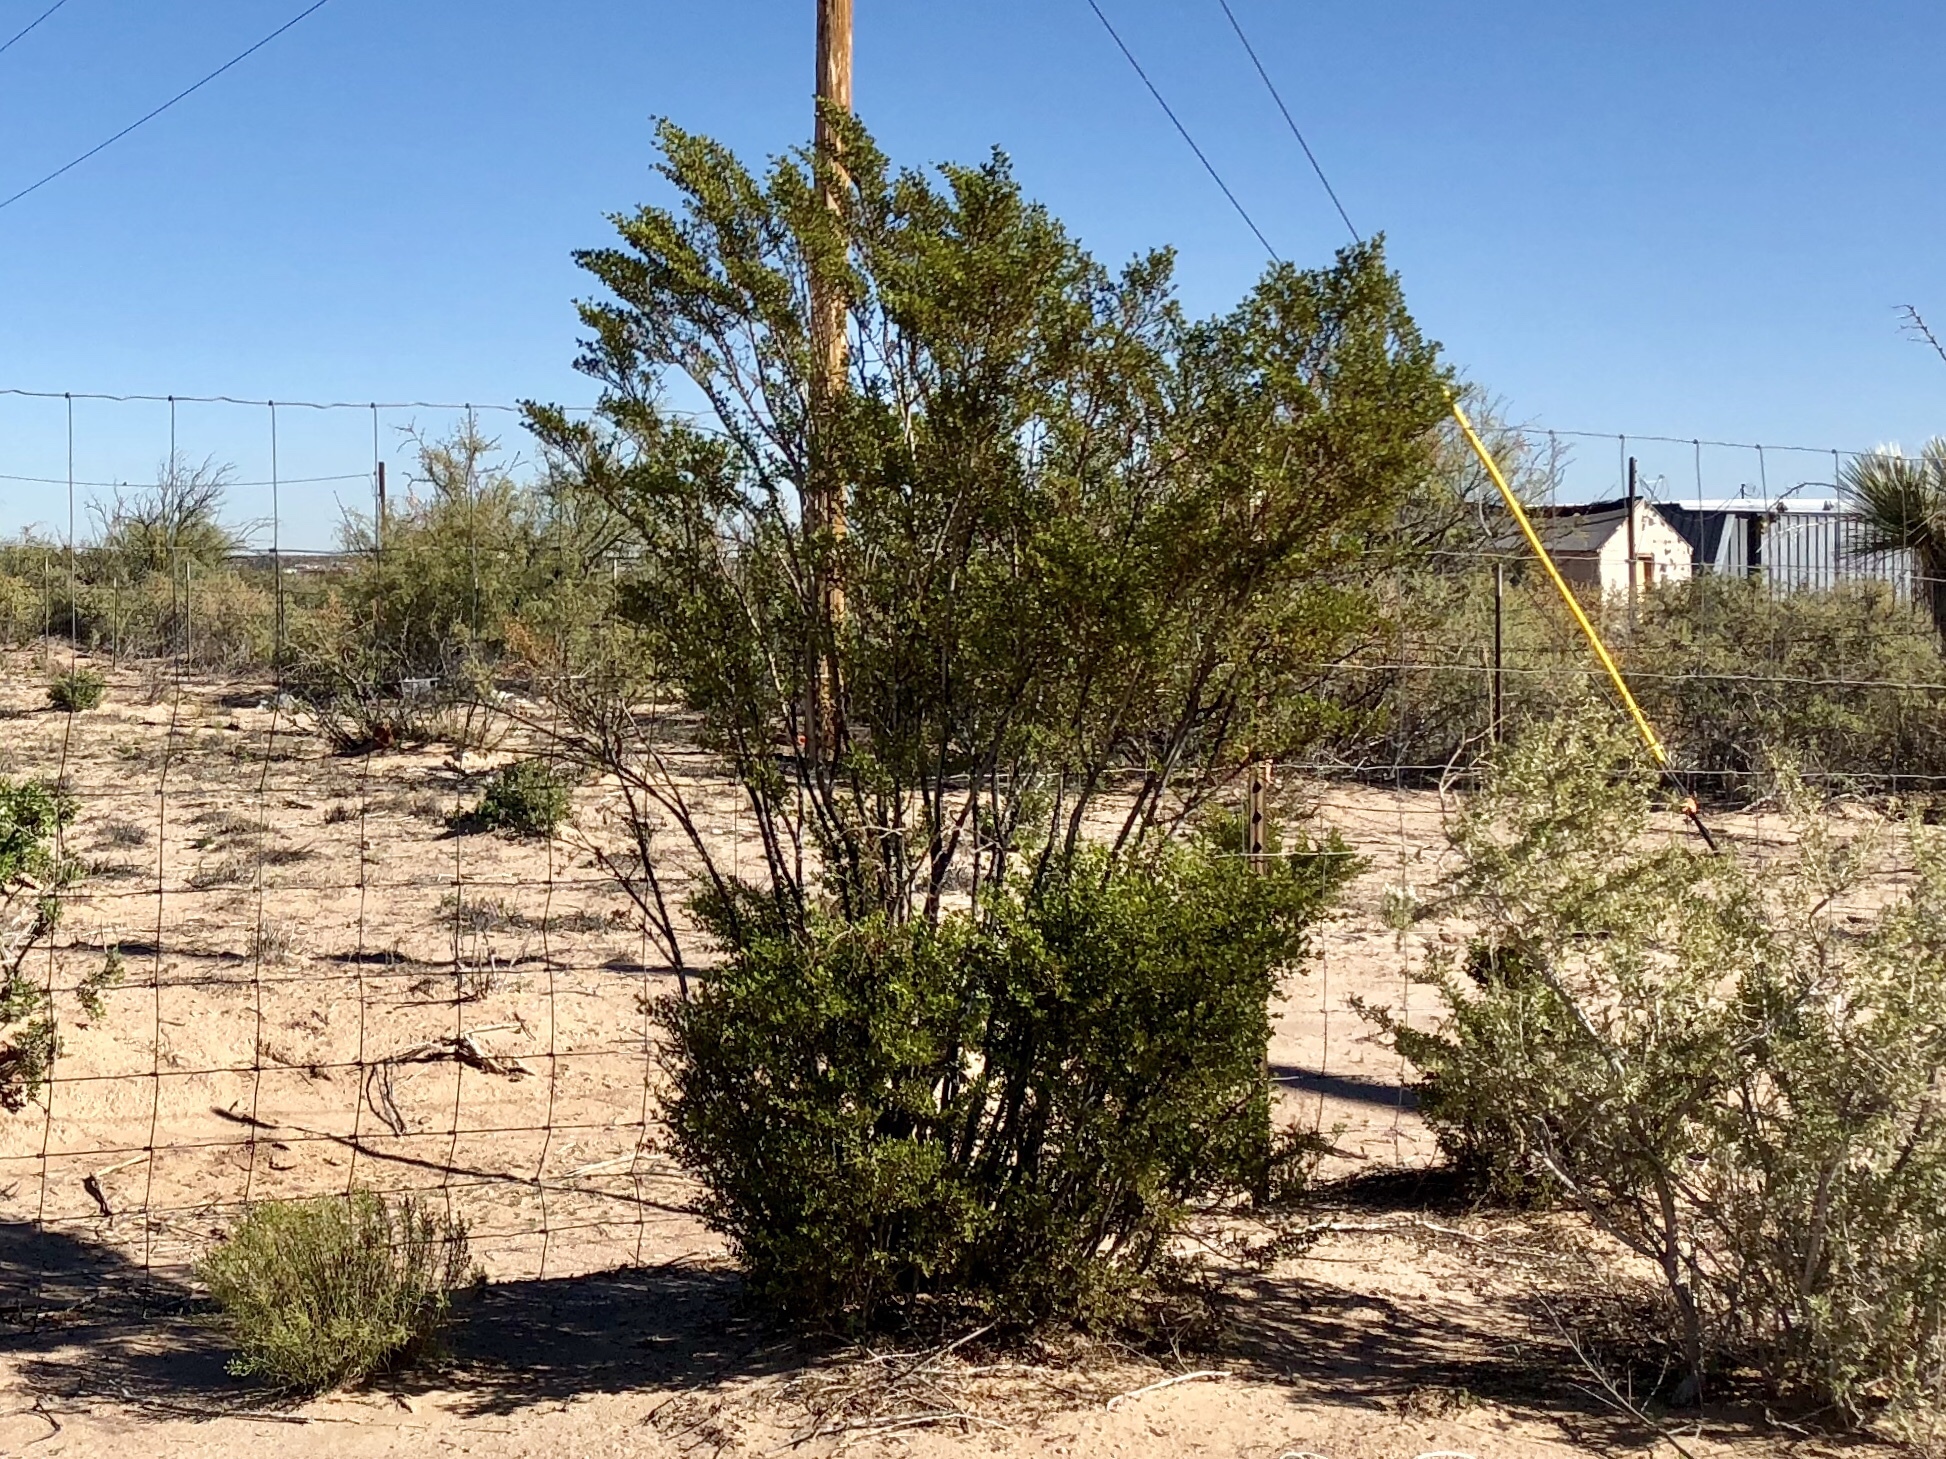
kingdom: Plantae
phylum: Tracheophyta
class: Magnoliopsida
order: Zygophyllales
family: Zygophyllaceae
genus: Larrea
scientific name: Larrea tridentata
